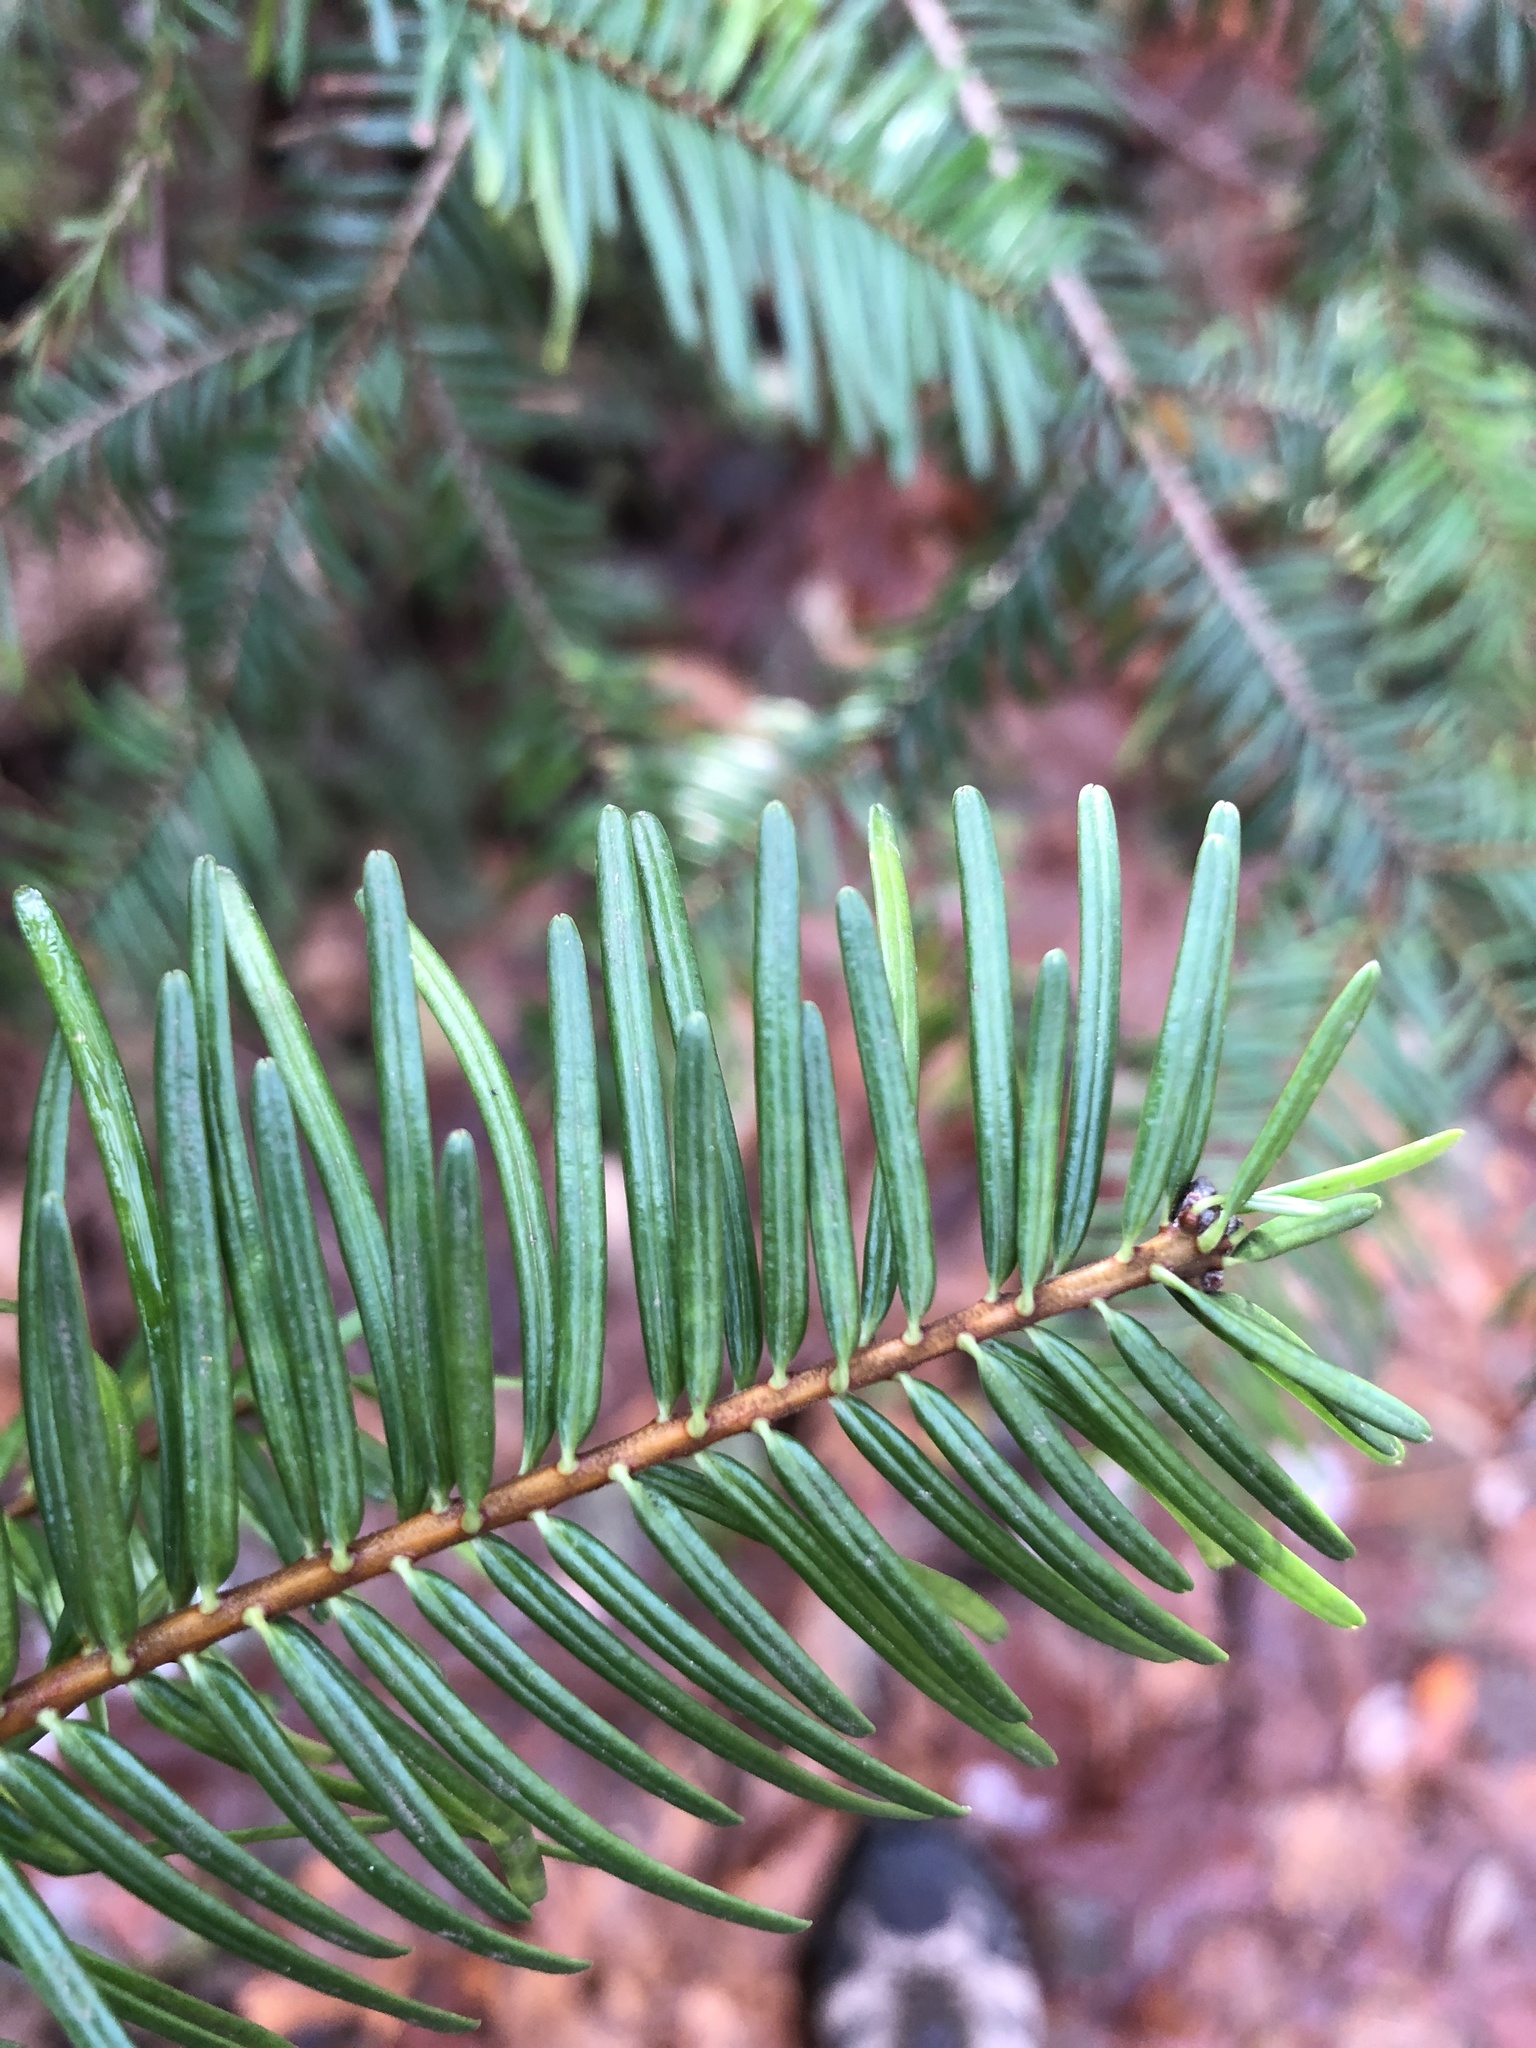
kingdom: Plantae
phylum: Tracheophyta
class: Pinopsida
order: Pinales
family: Pinaceae
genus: Abies
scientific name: Abies grandis
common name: Giant fir
